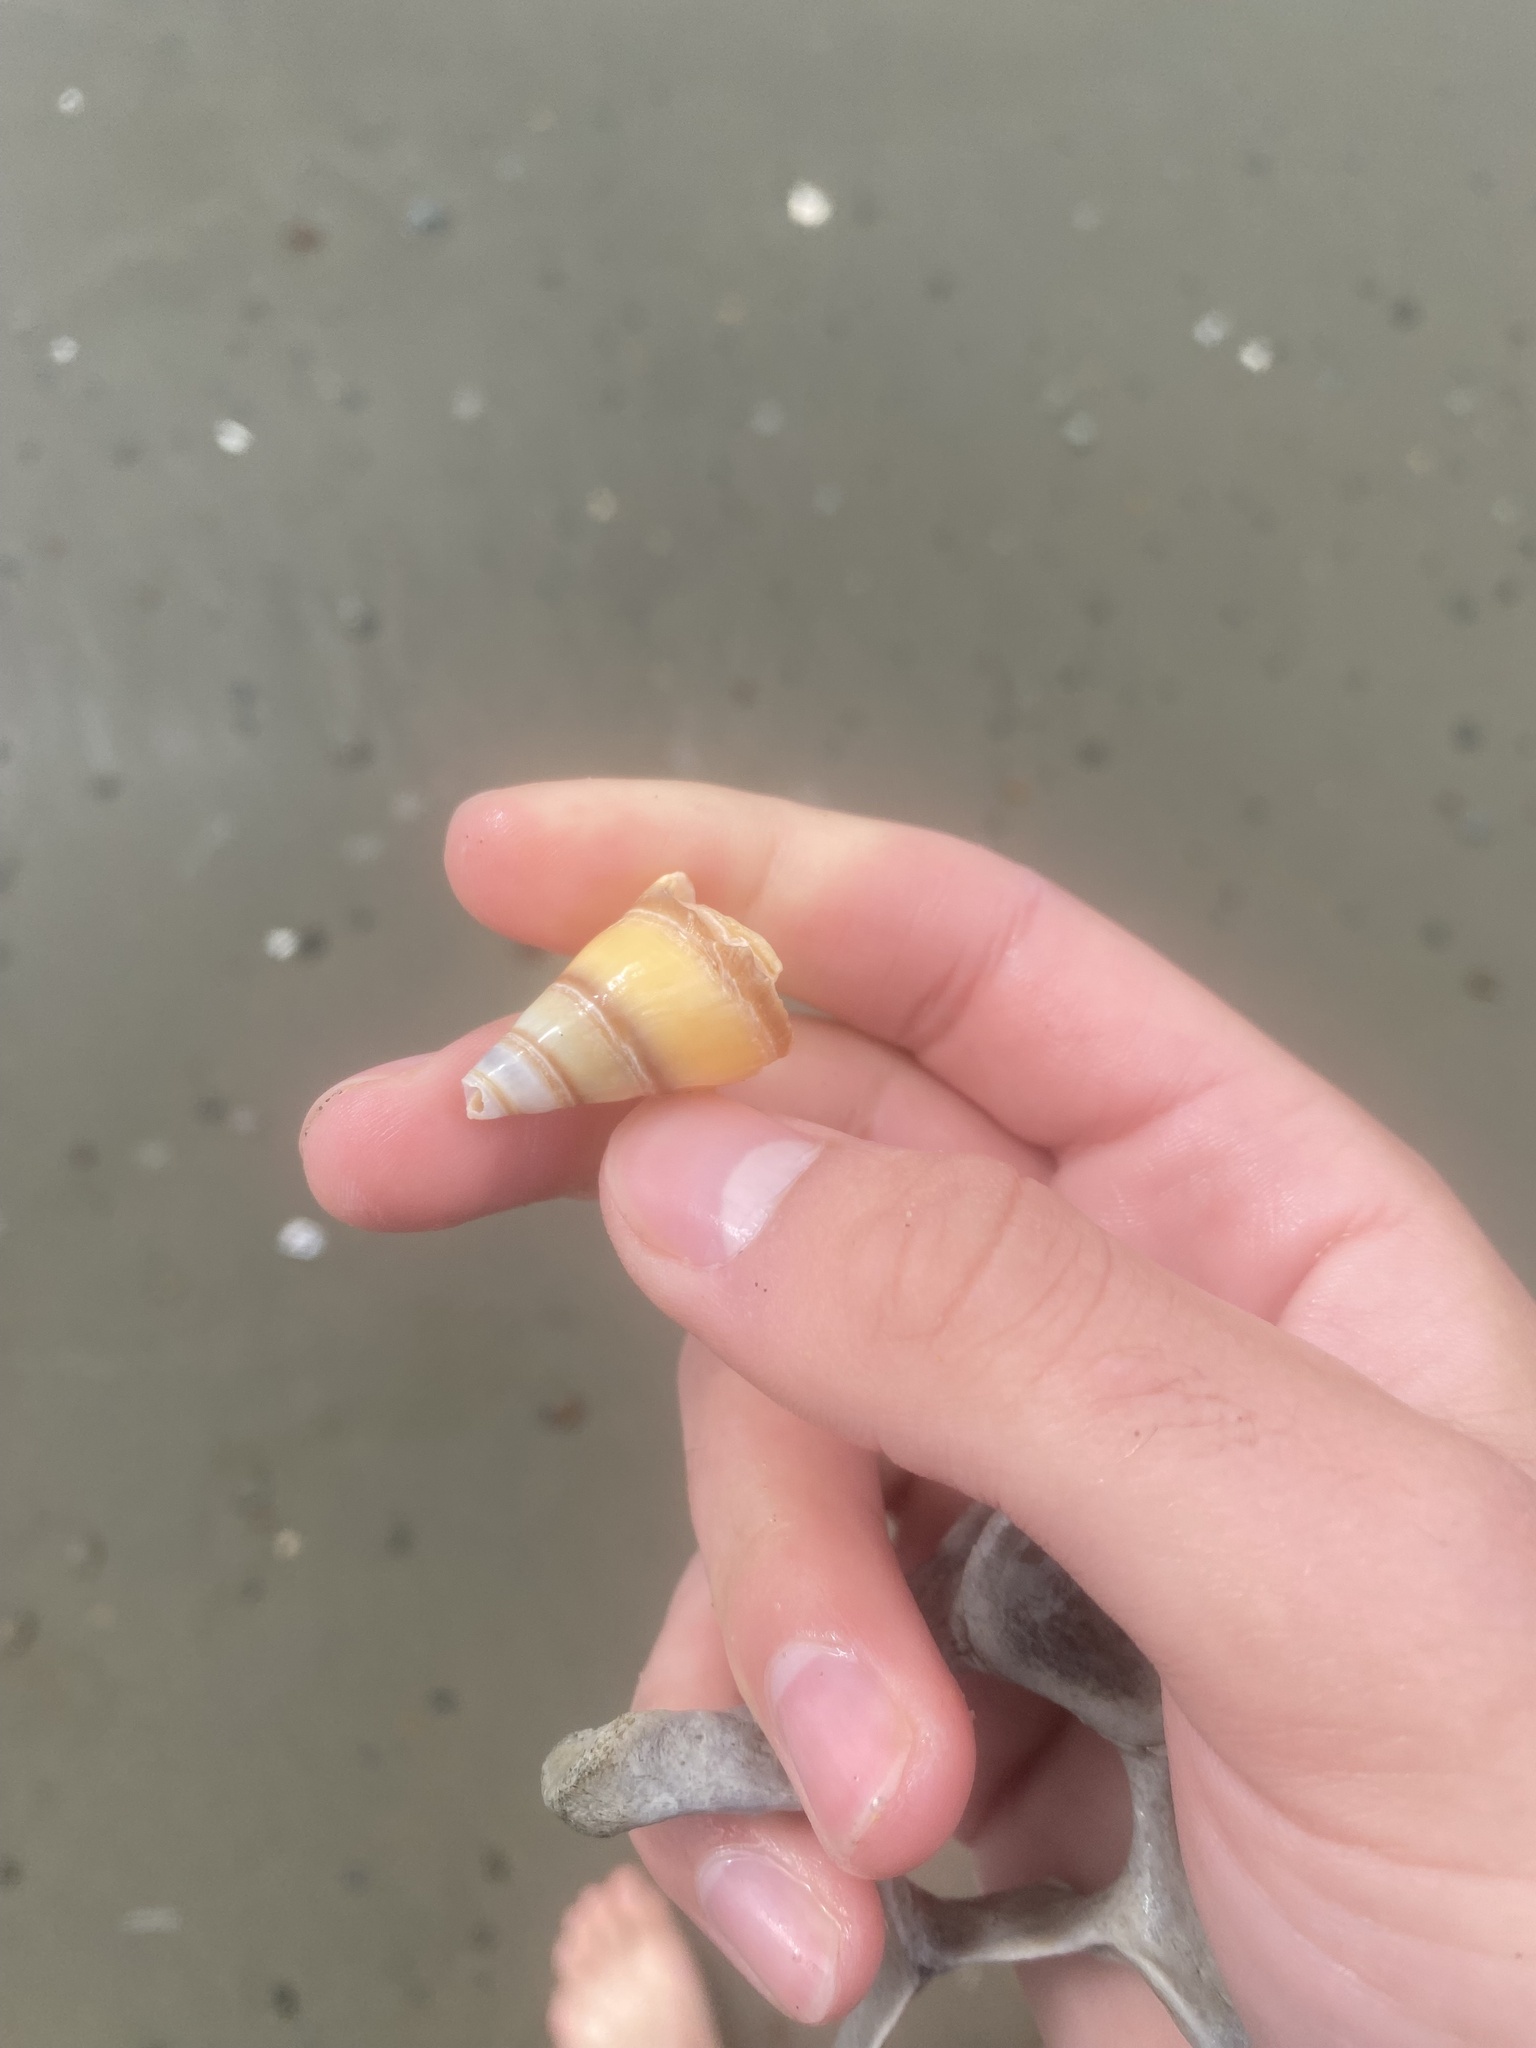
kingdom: Animalia
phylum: Mollusca
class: Gastropoda
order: Neogastropoda
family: Pseudomelatomidae
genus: Megasurcula
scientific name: Megasurcula carpenteriana
